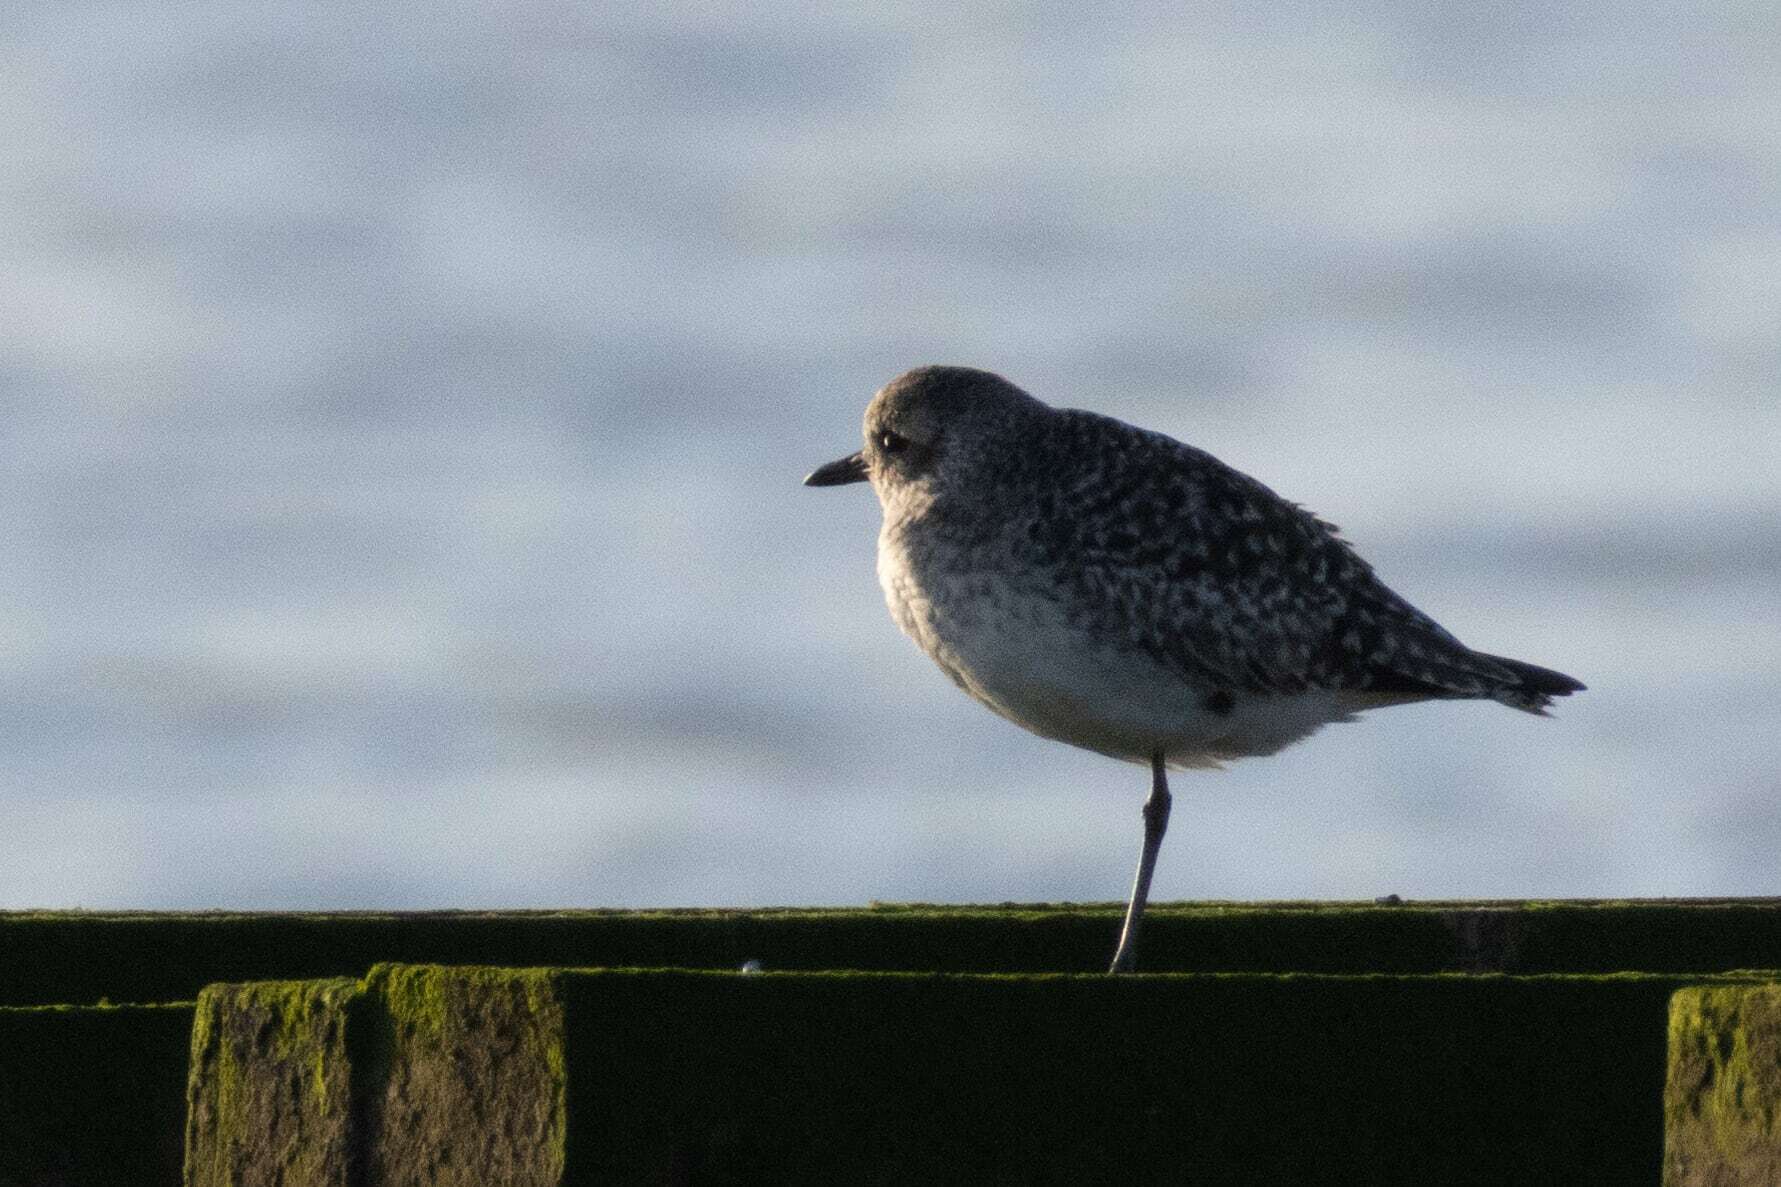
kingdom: Animalia
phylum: Chordata
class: Aves
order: Charadriiformes
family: Charadriidae
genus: Pluvialis
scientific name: Pluvialis squatarola
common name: Grey plover
